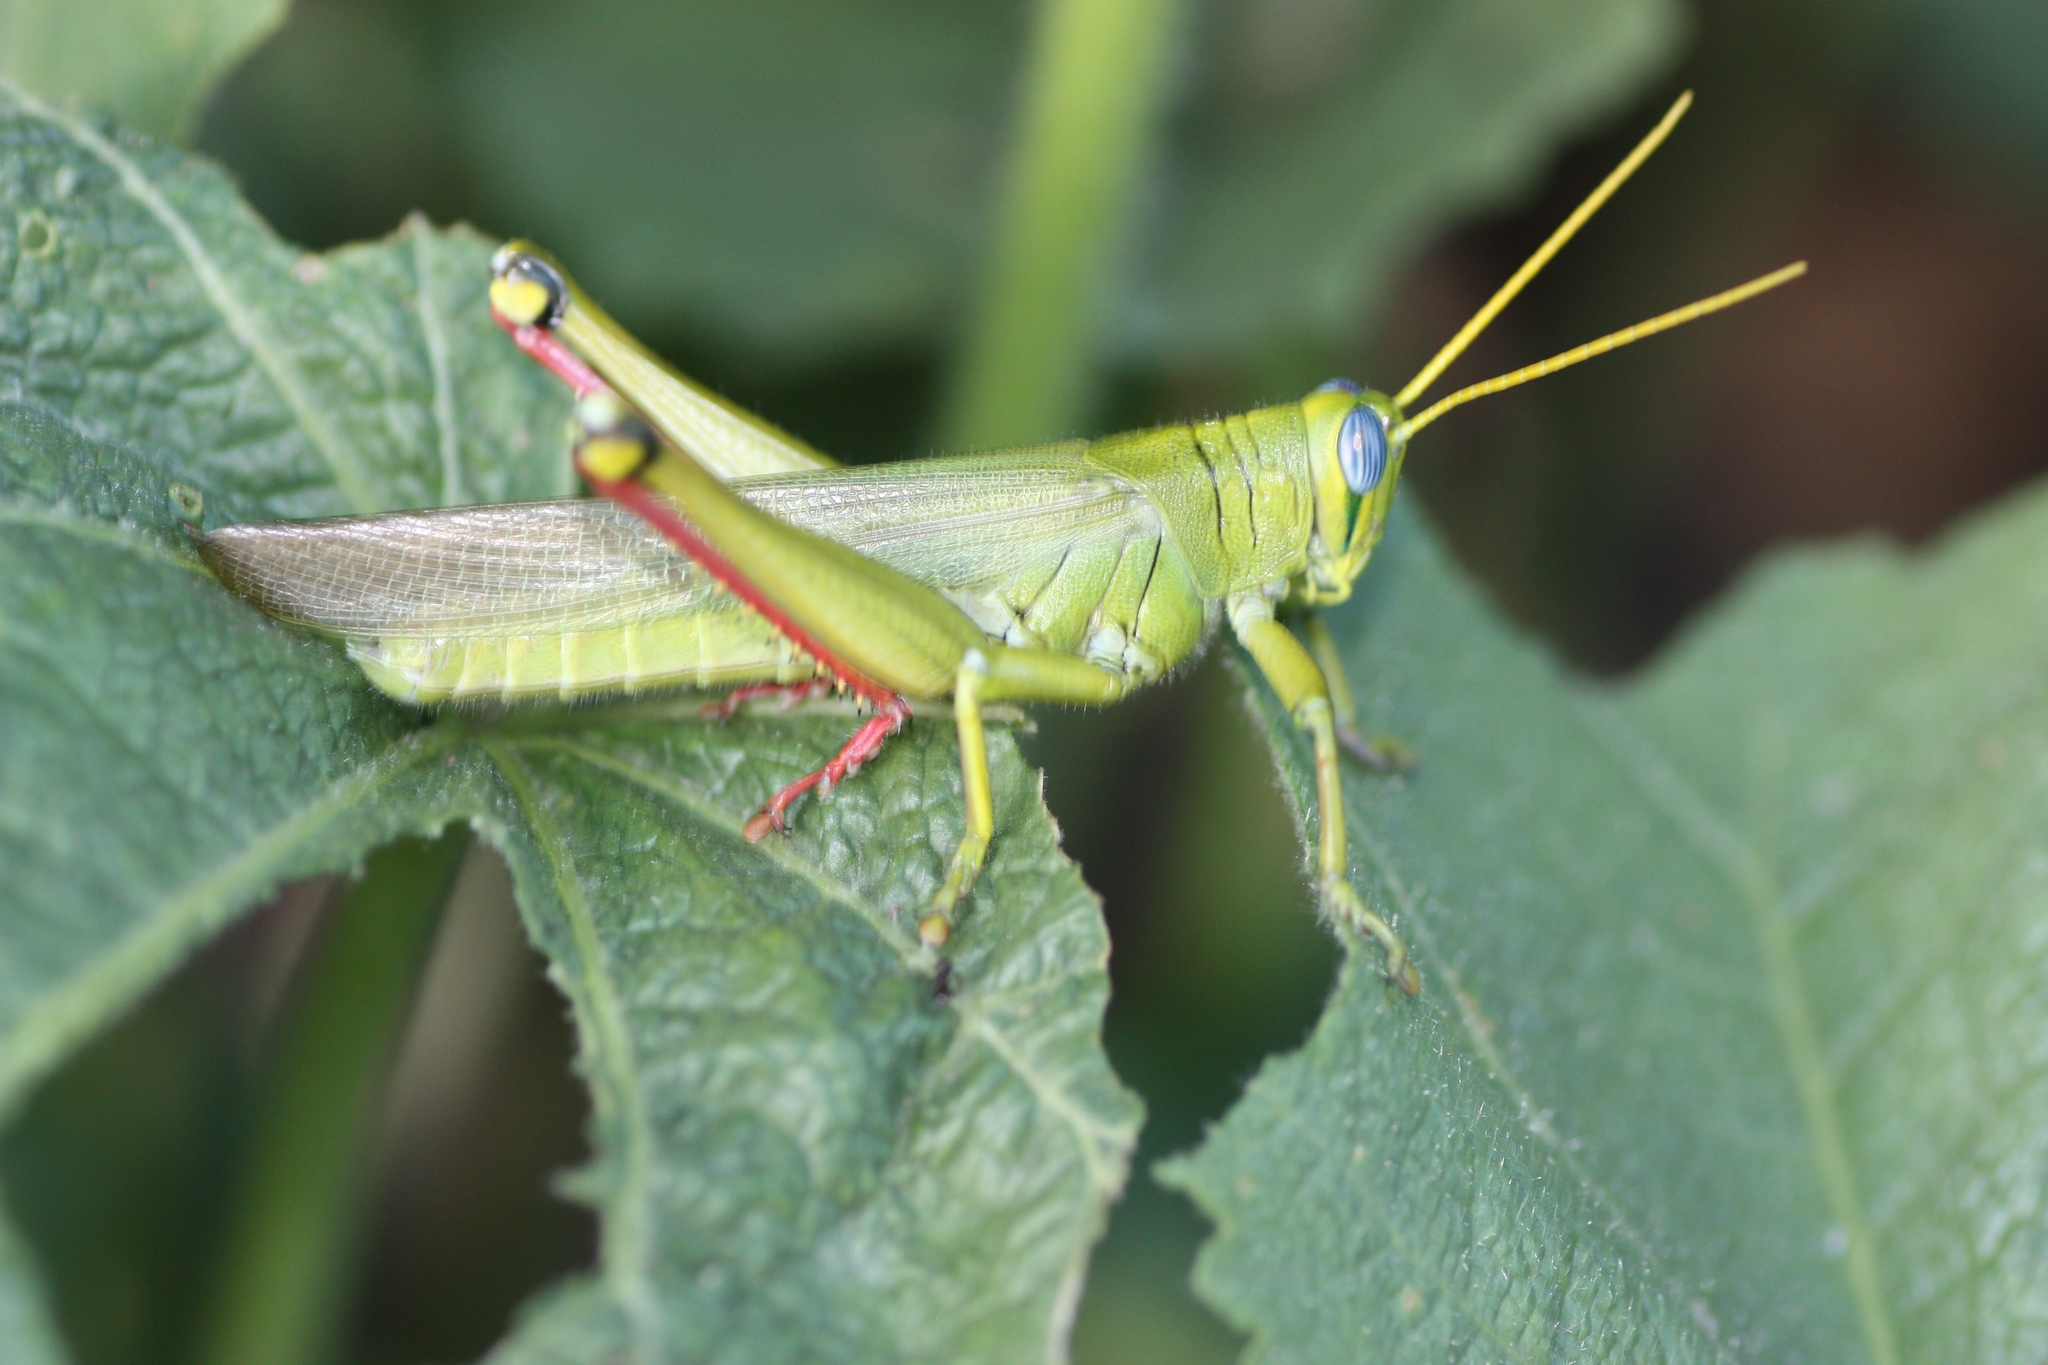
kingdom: Animalia
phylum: Arthropoda
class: Insecta
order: Orthoptera
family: Acrididae
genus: Schistocerca
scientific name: Schistocerca shoshone
